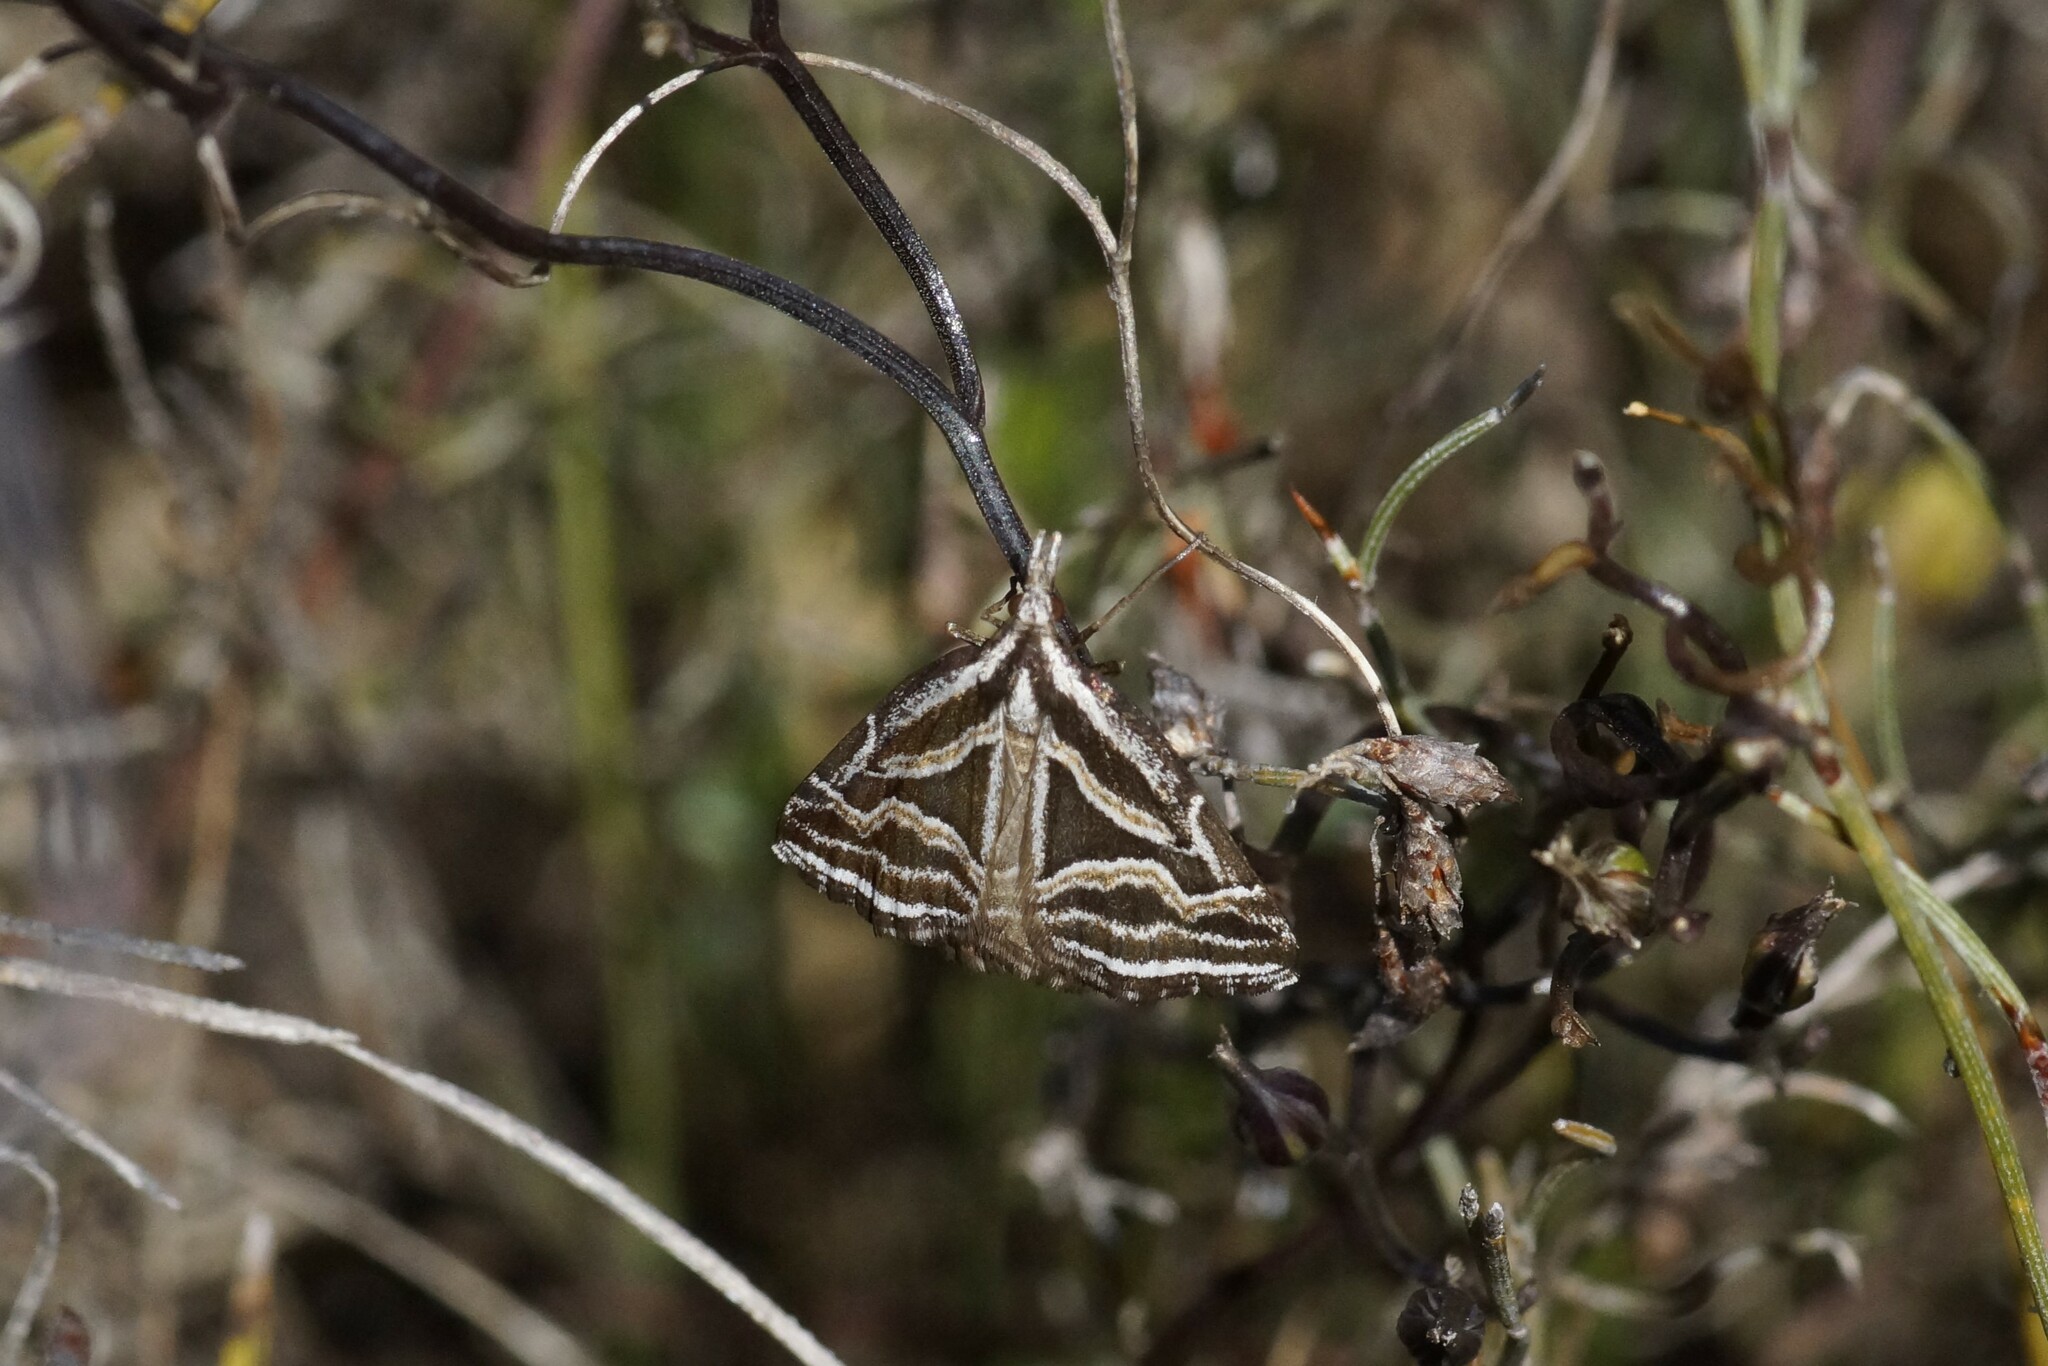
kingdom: Animalia
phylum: Arthropoda
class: Insecta
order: Lepidoptera
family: Geometridae
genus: Dichromodes
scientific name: Dichromodes confluaria
